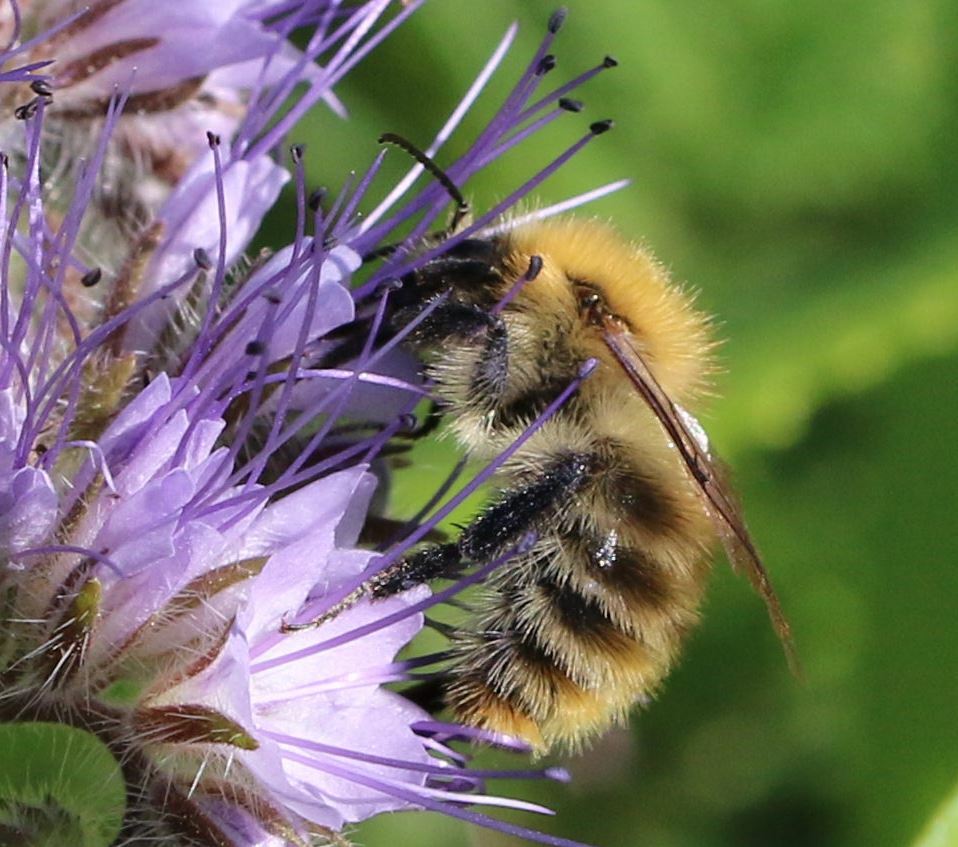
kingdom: Animalia
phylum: Arthropoda
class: Insecta
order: Hymenoptera
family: Apidae
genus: Bombus
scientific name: Bombus pascuorum
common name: Common carder bee
